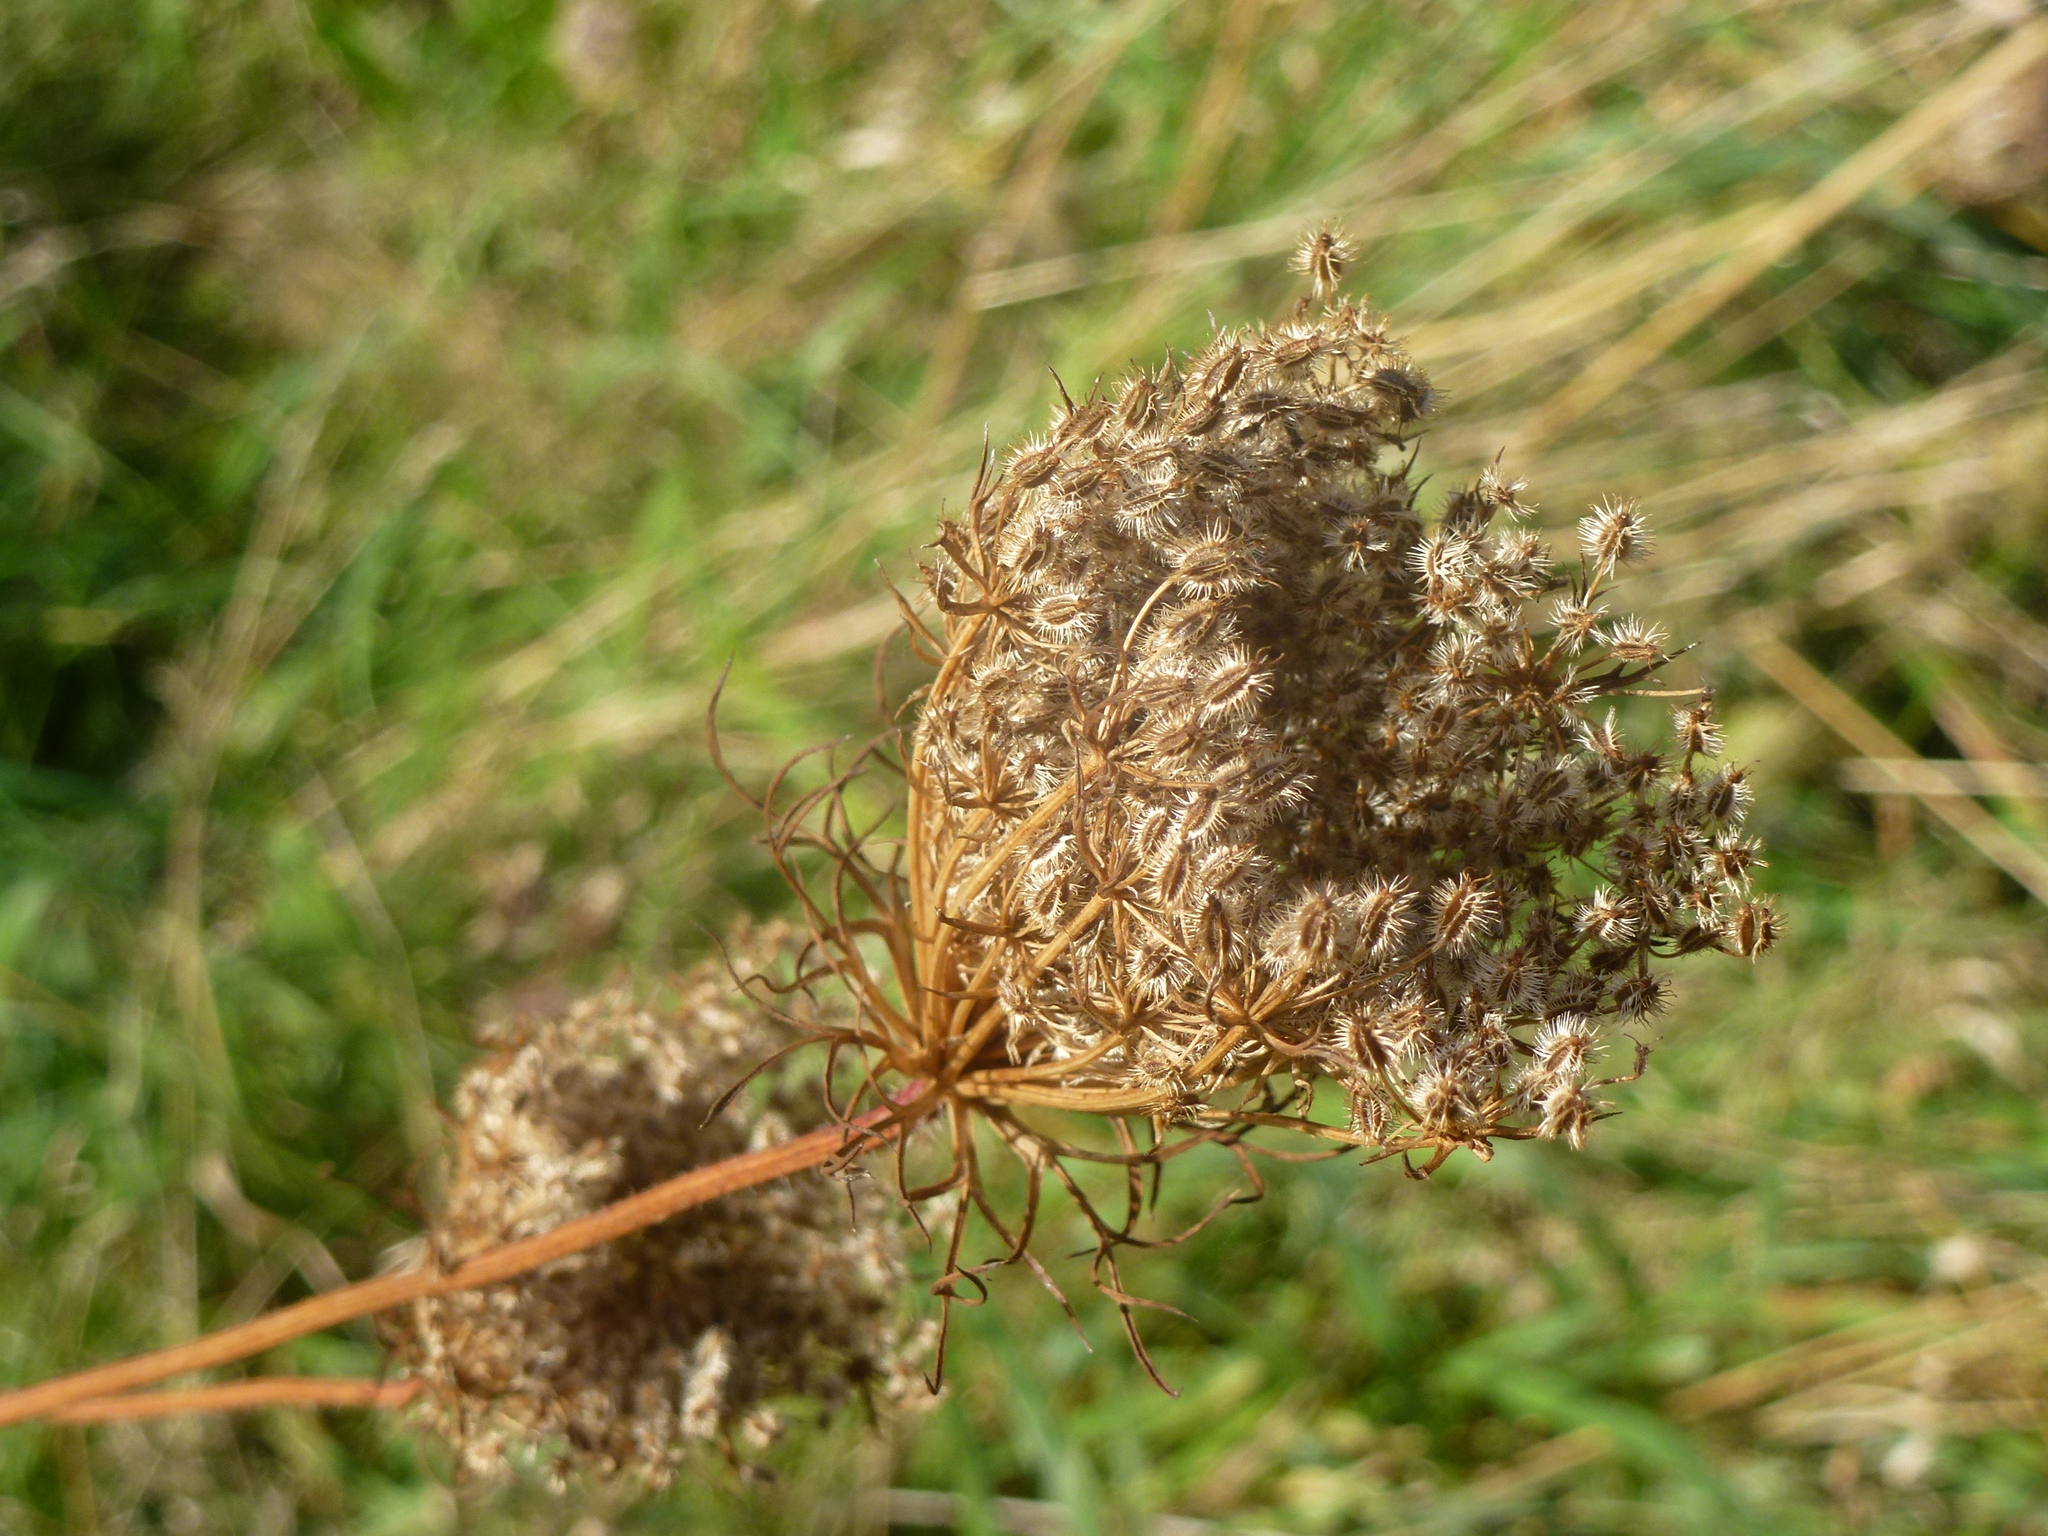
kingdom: Plantae
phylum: Tracheophyta
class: Magnoliopsida
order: Apiales
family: Apiaceae
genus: Daucus
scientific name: Daucus carota
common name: Wild carrot
